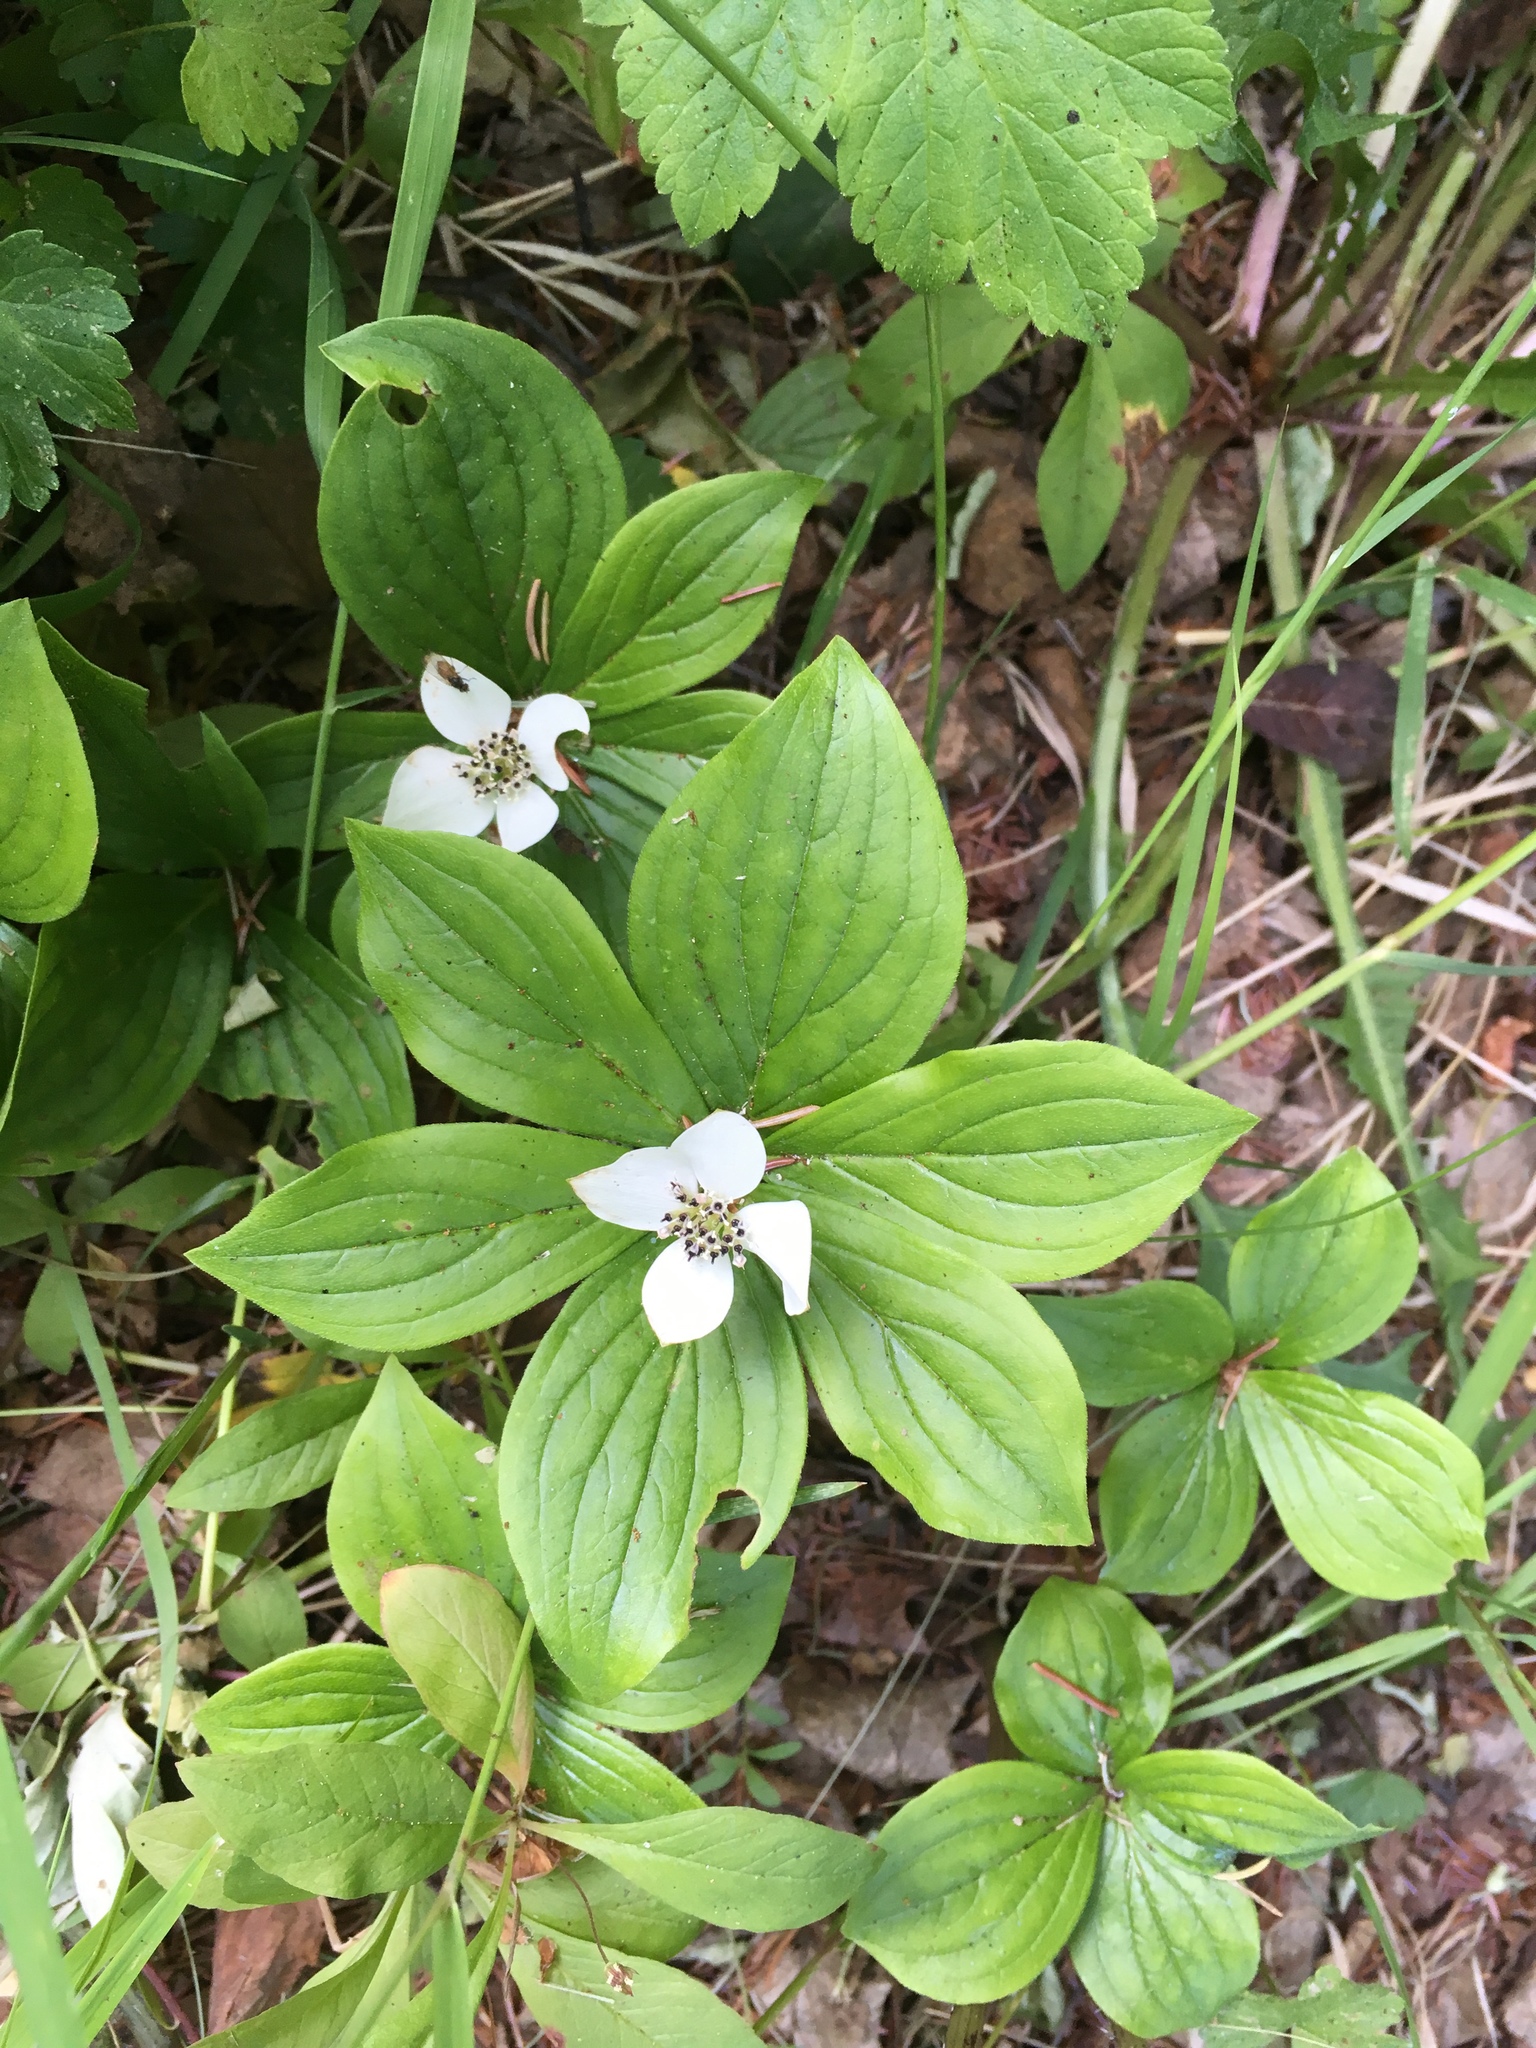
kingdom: Plantae
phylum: Tracheophyta
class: Magnoliopsida
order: Cornales
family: Cornaceae
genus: Cornus
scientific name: Cornus canadensis
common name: Creeping dogwood
